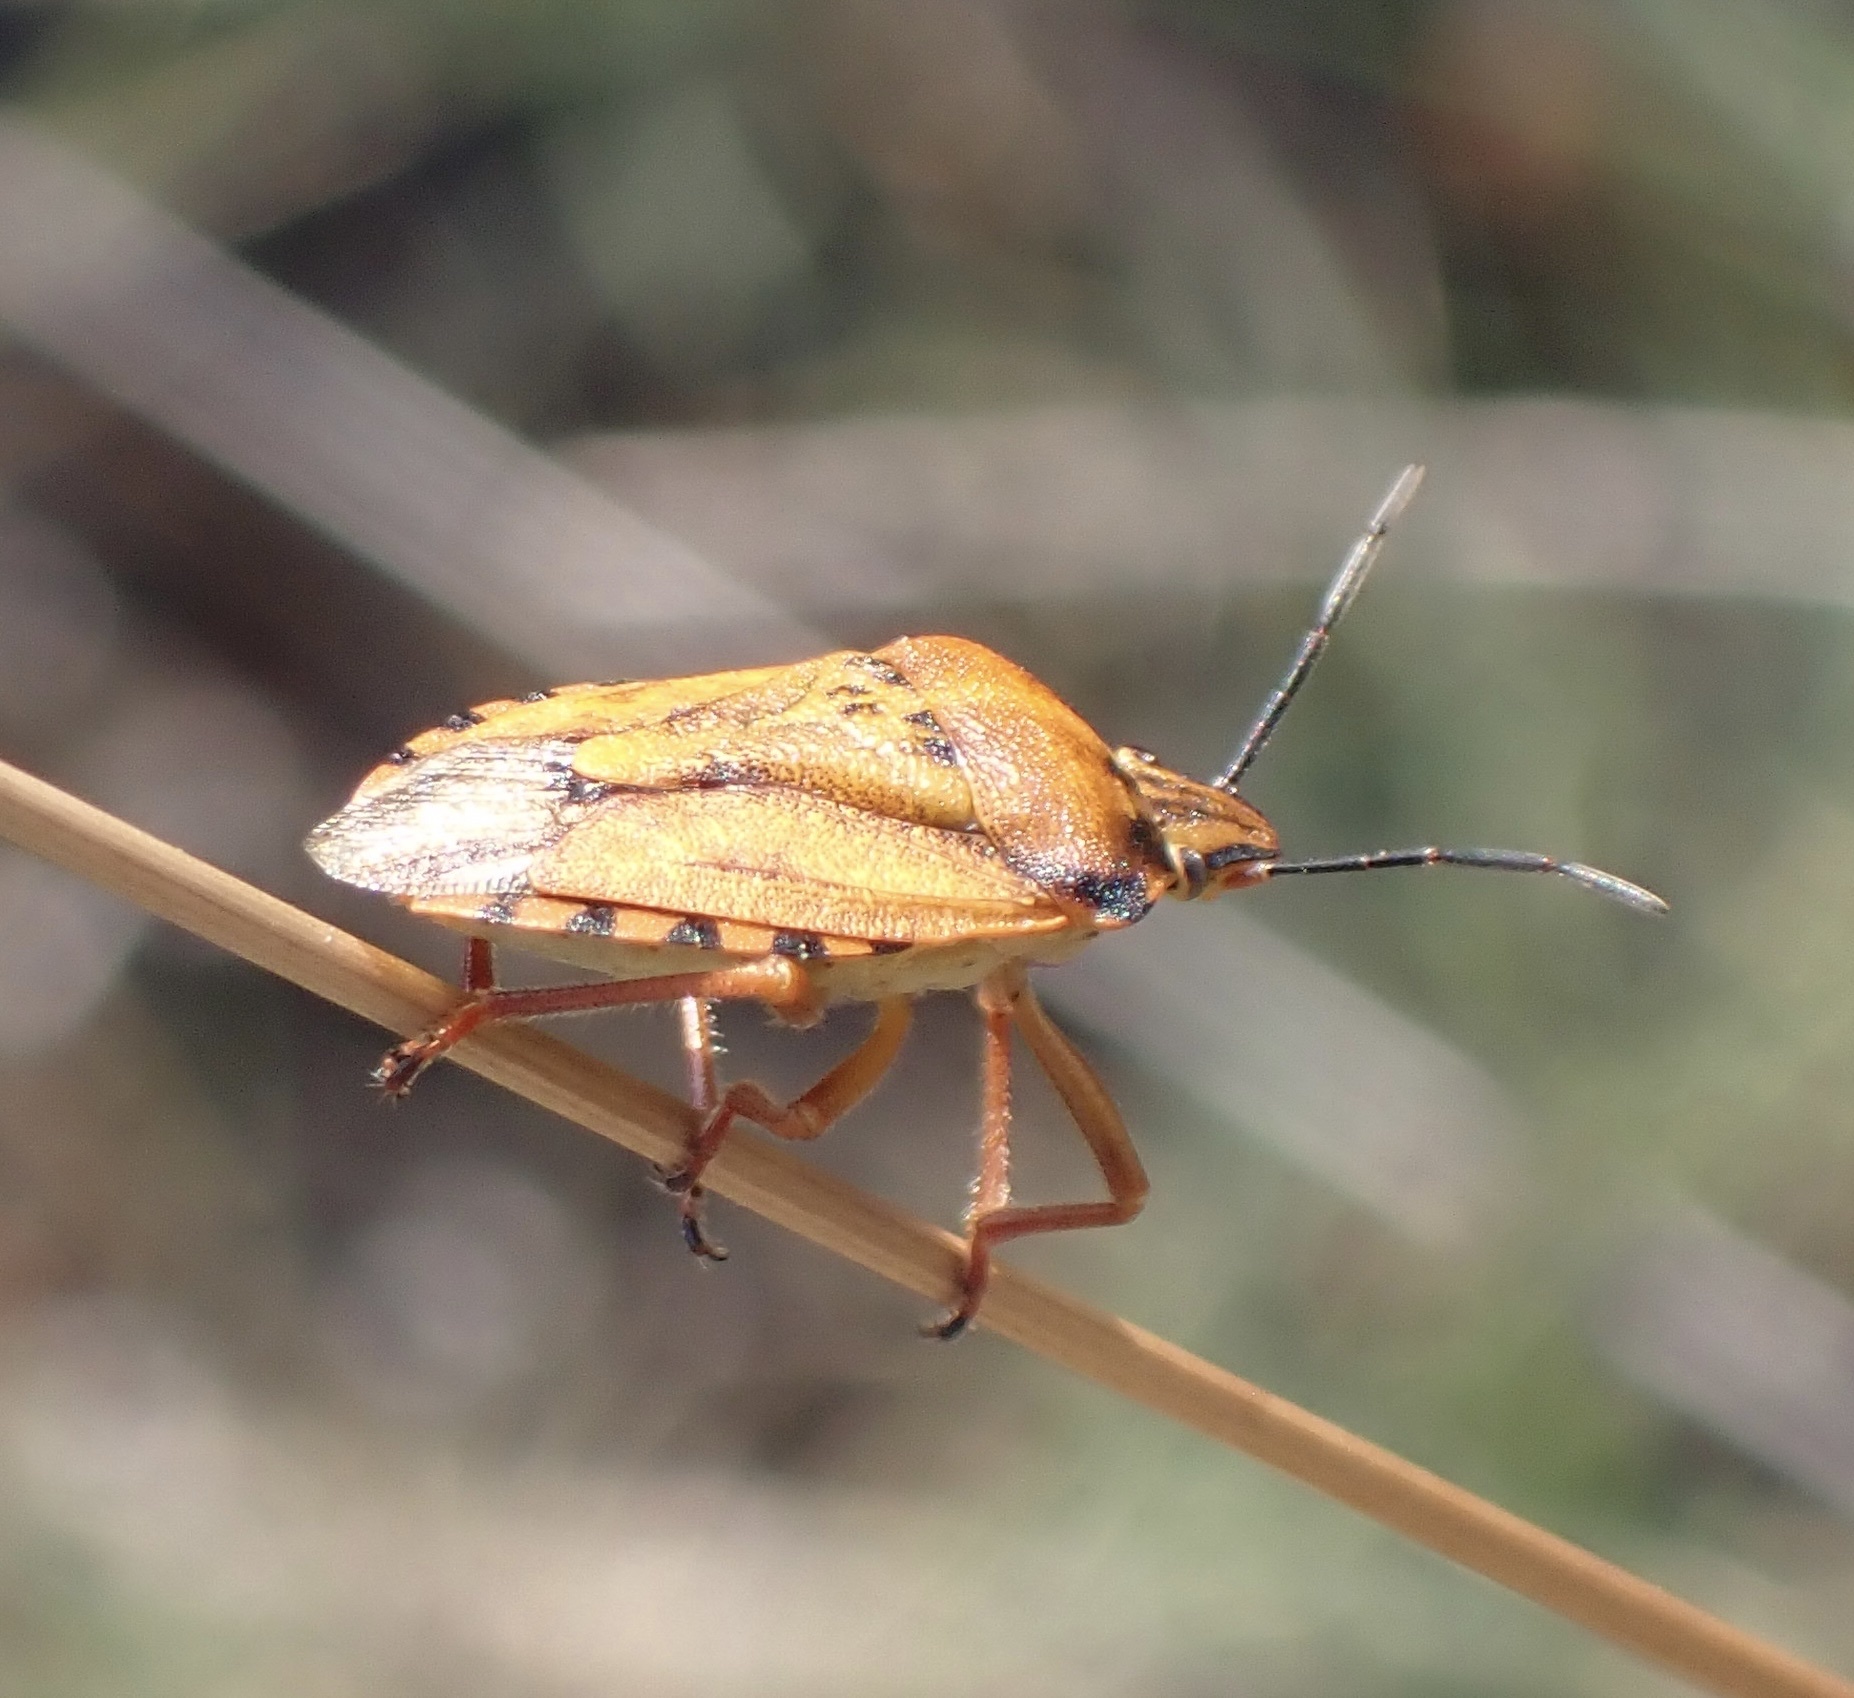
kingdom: Animalia
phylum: Arthropoda
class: Insecta
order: Hemiptera
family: Pentatomidae
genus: Carpocoris
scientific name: Carpocoris mediterraneus
